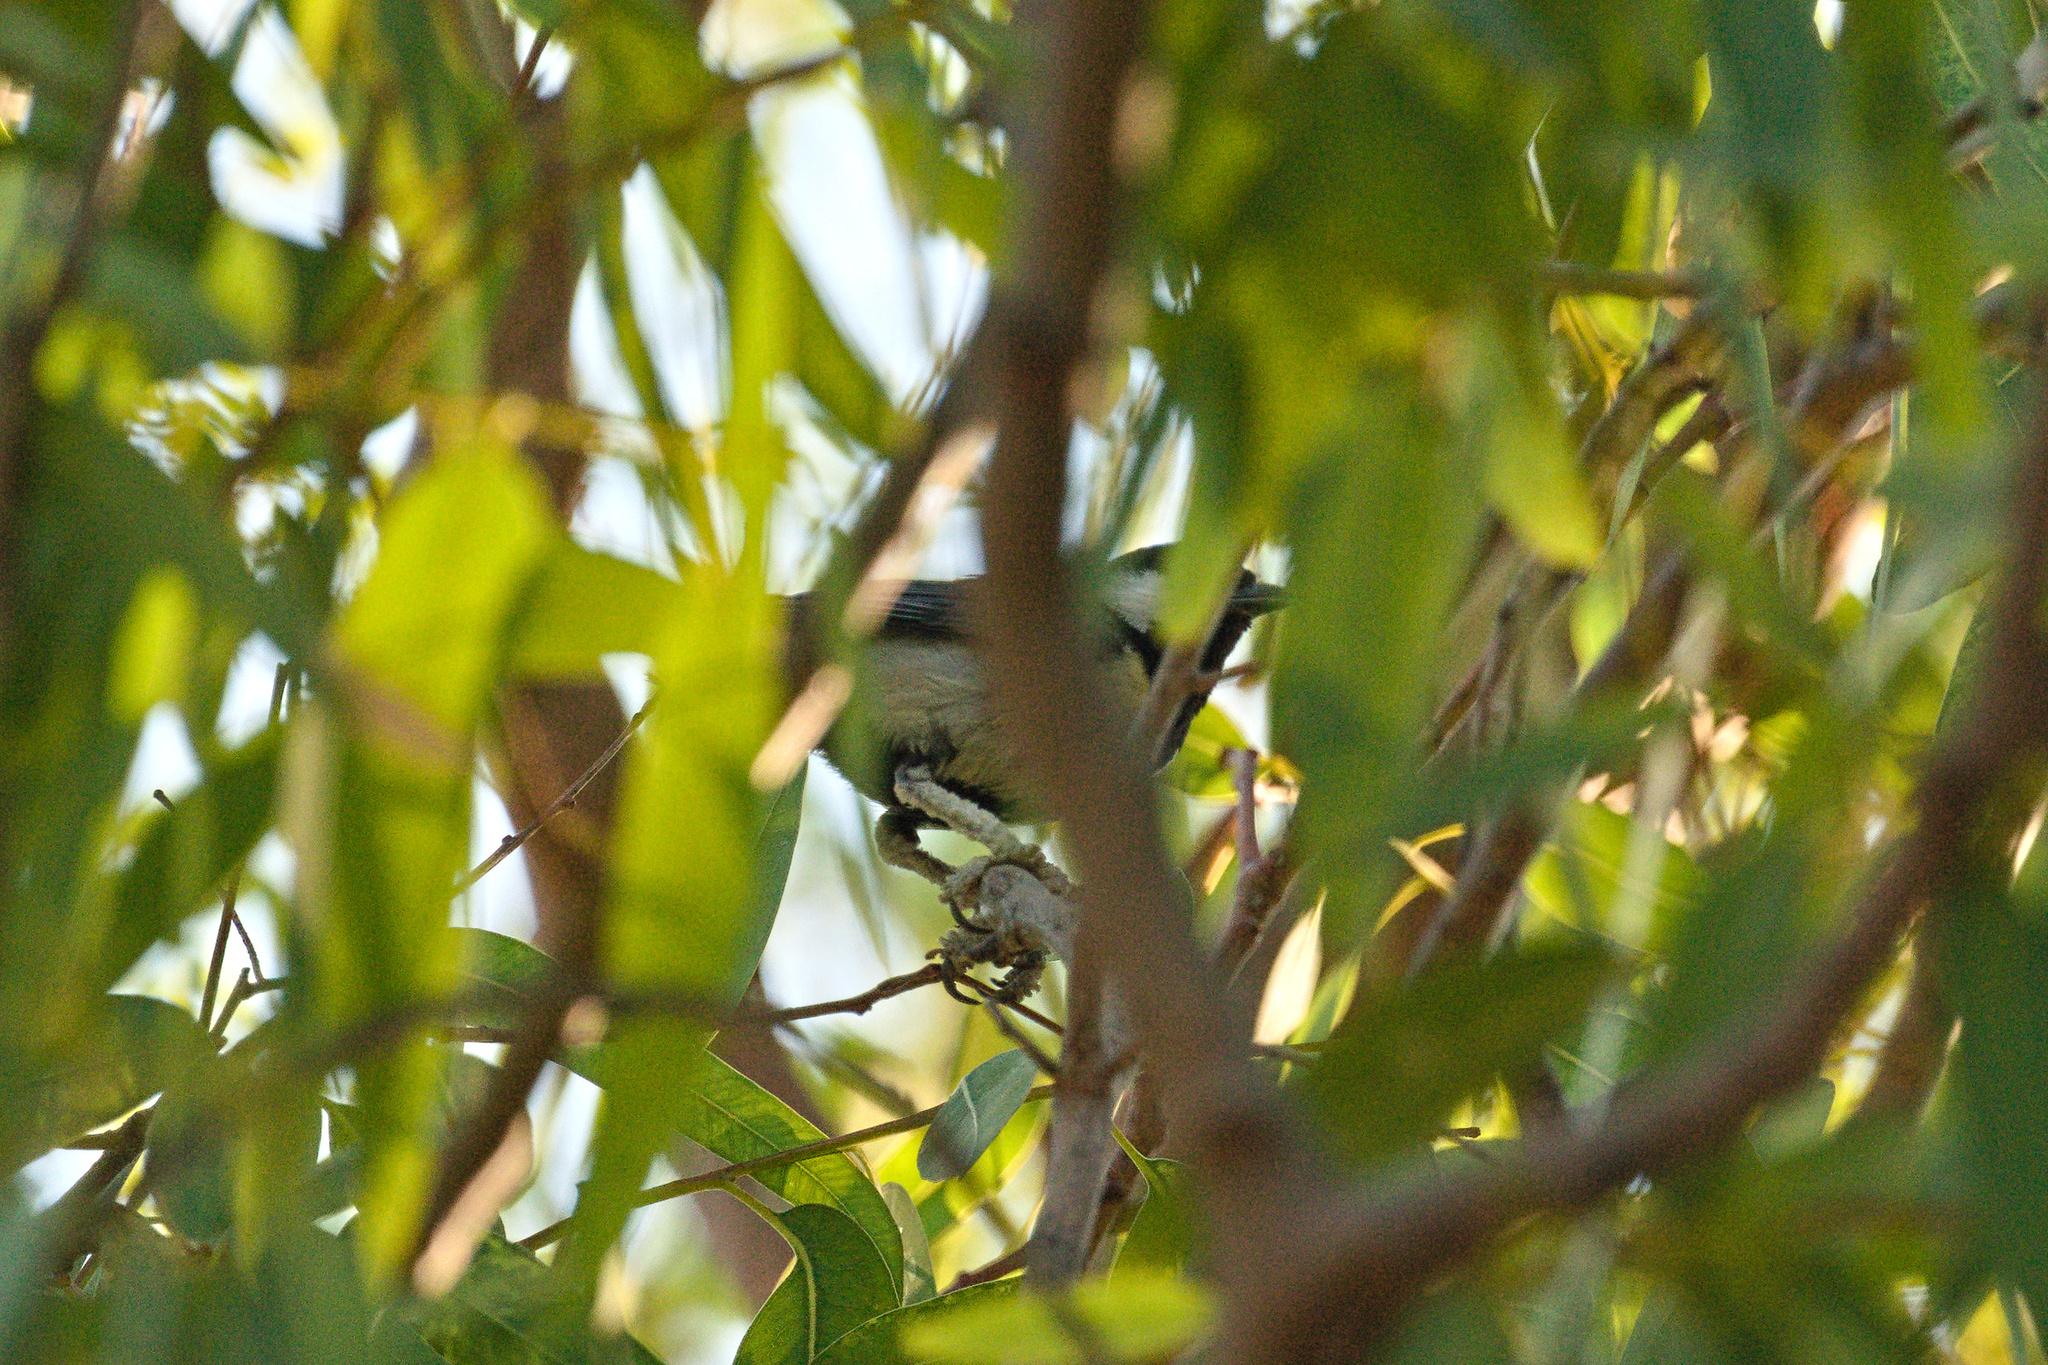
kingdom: Animalia
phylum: Chordata
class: Aves
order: Passeriformes
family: Paridae
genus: Parus
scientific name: Parus major
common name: Great tit
